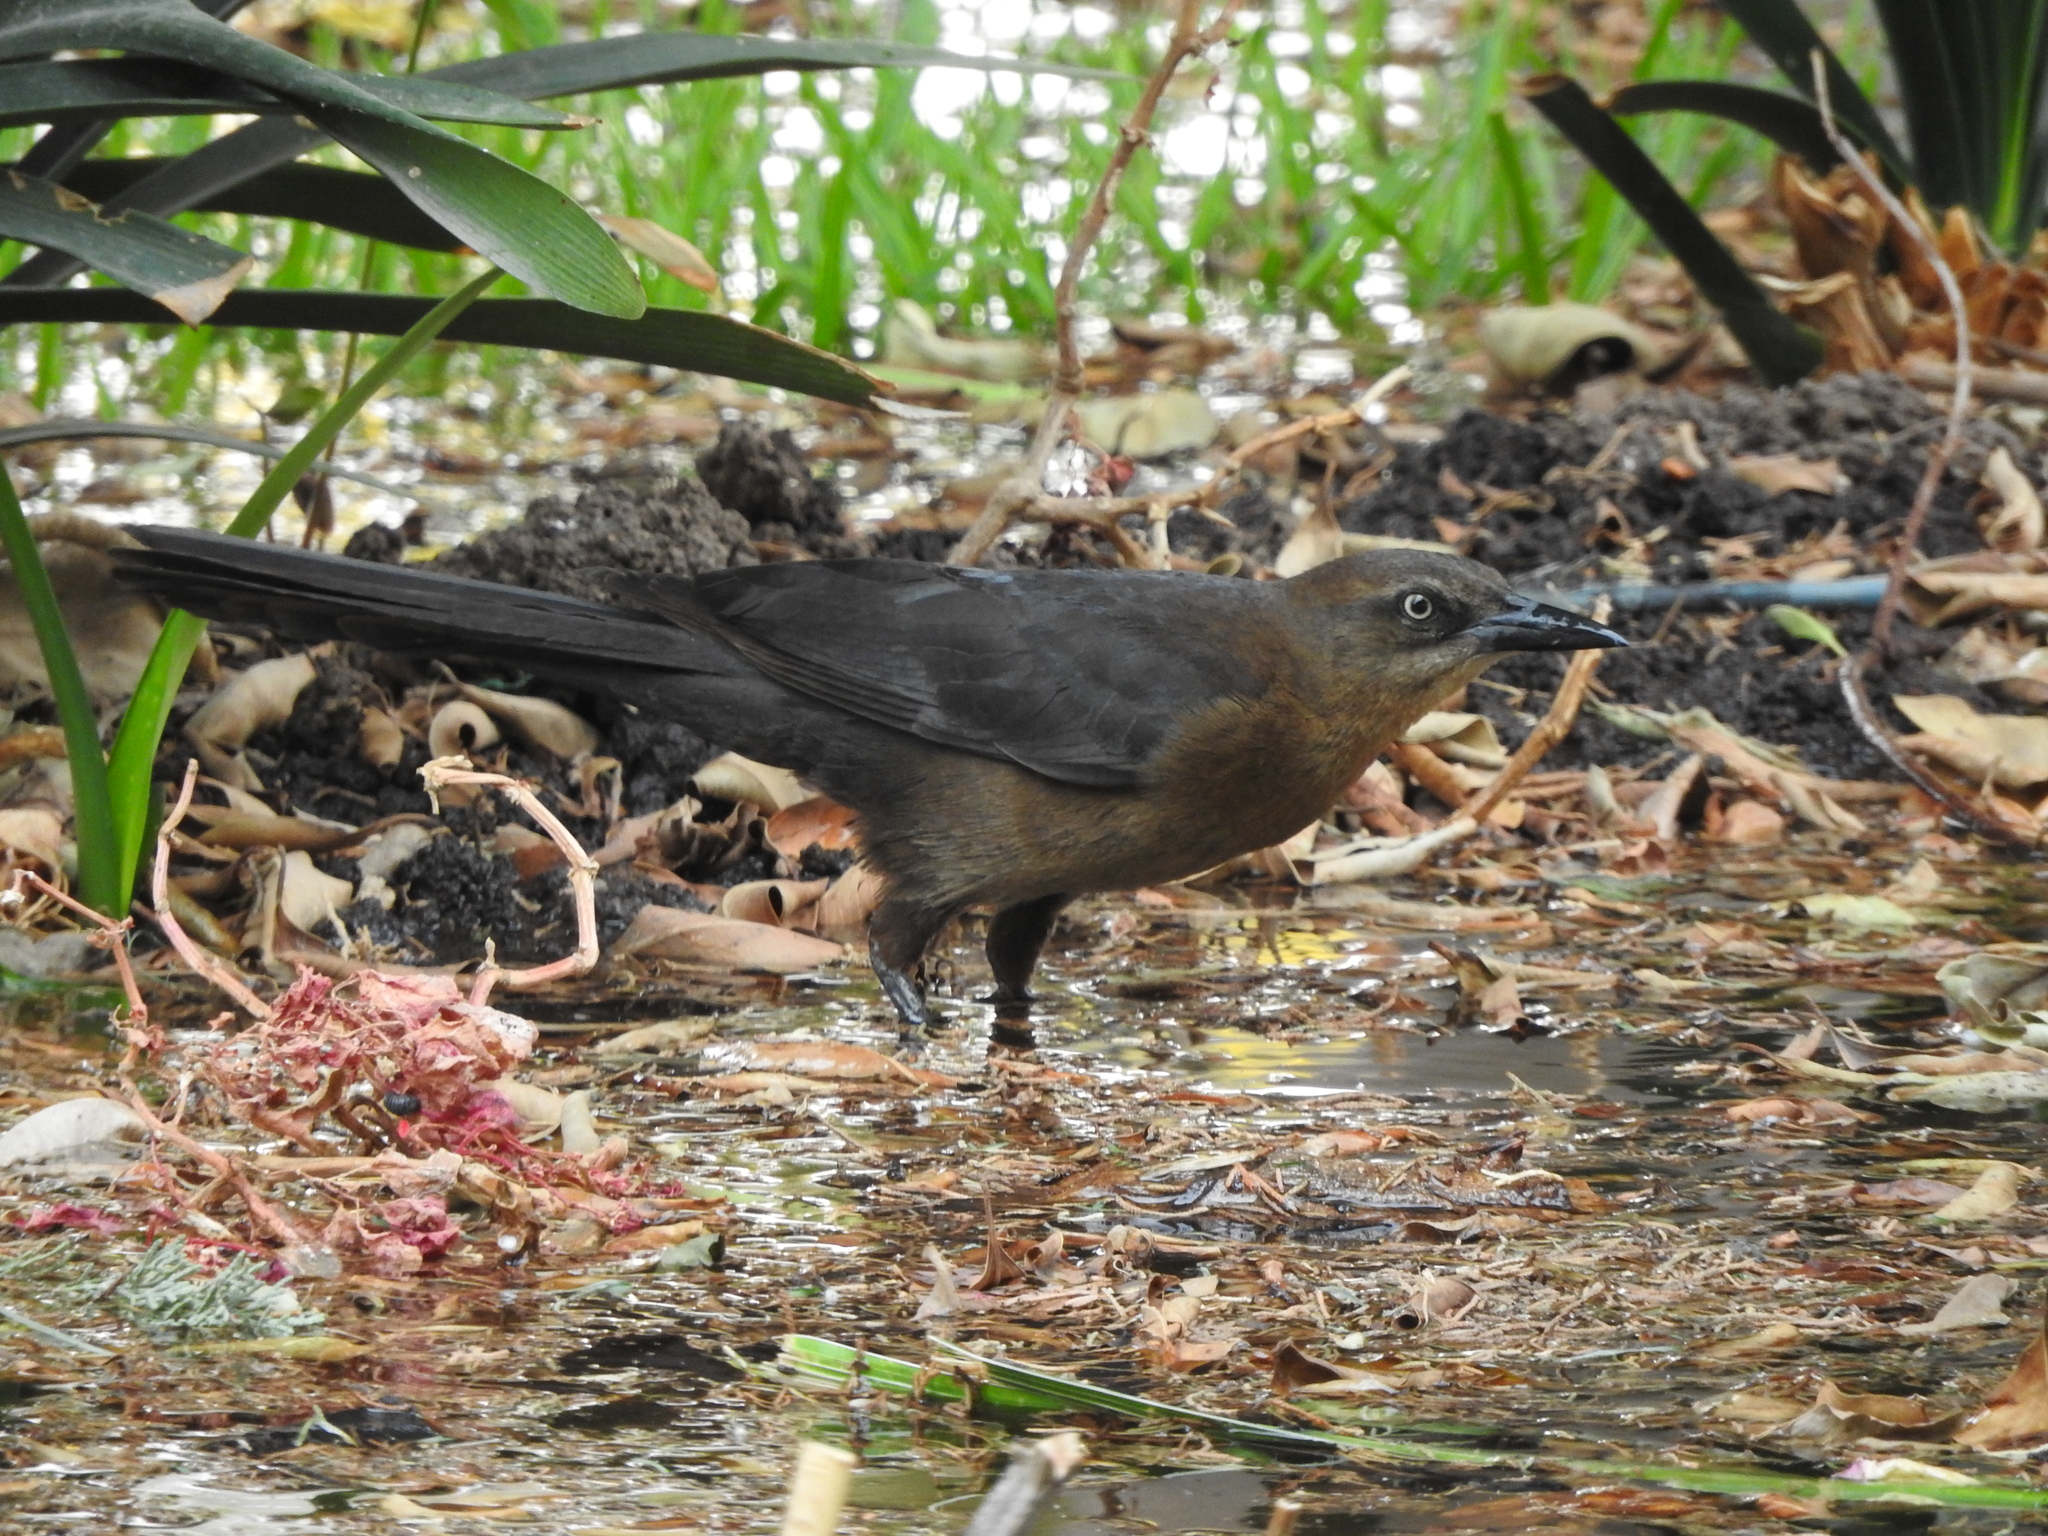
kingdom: Animalia
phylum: Chordata
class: Aves
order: Passeriformes
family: Icteridae
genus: Quiscalus
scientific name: Quiscalus mexicanus
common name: Great-tailed grackle
